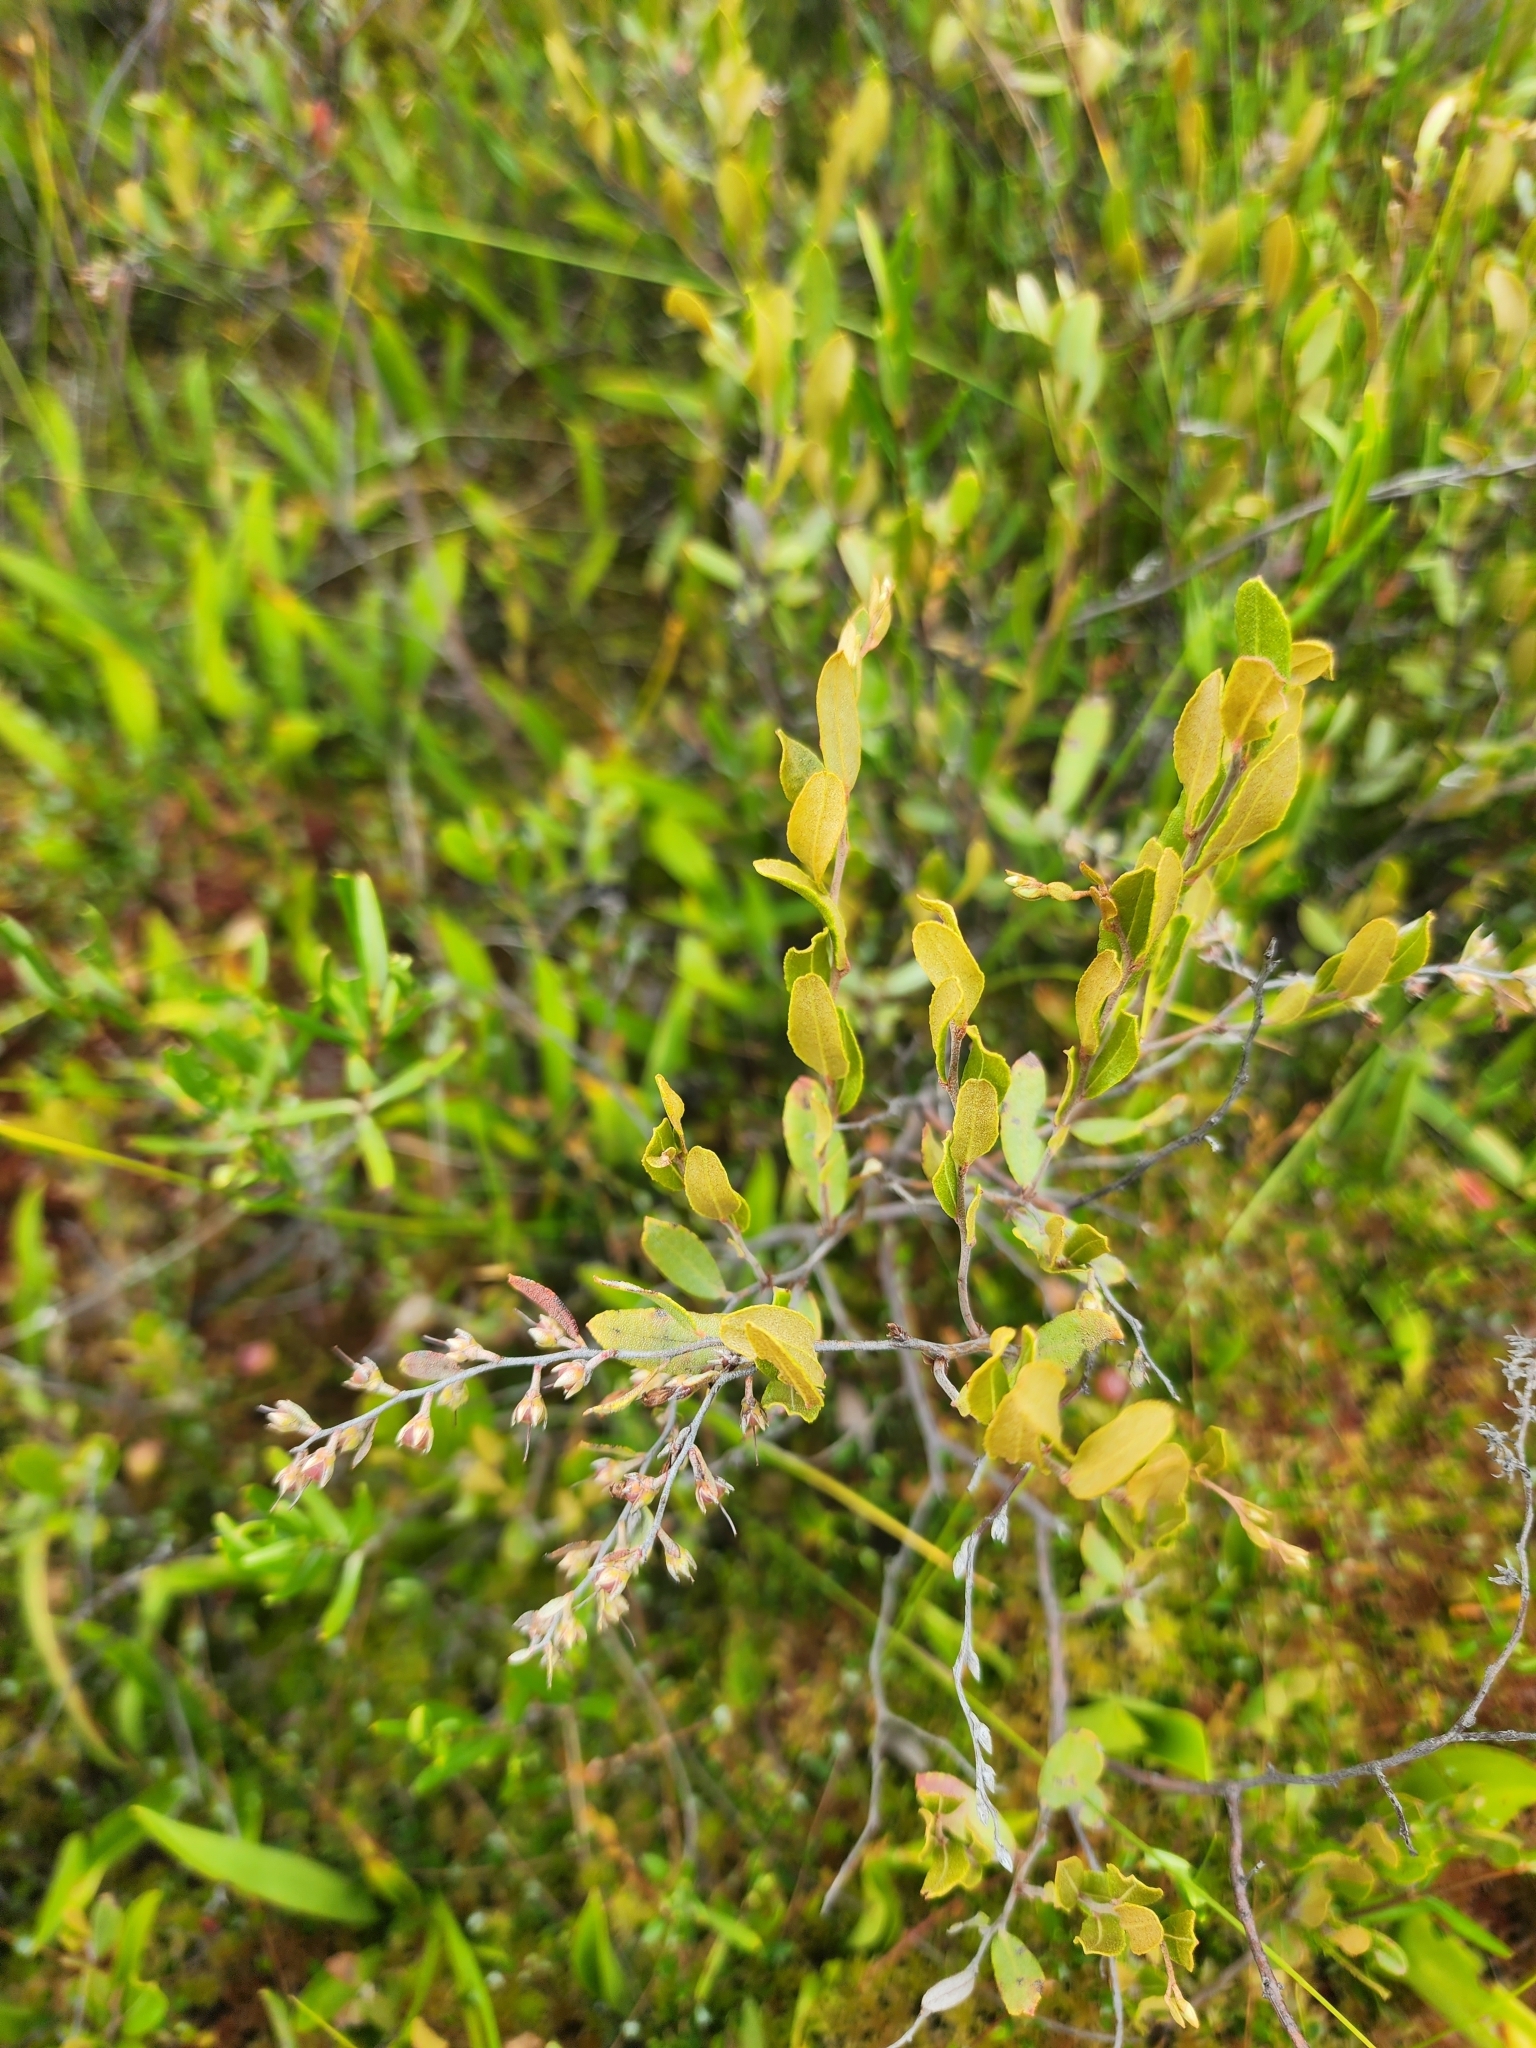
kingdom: Plantae
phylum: Tracheophyta
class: Magnoliopsida
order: Ericales
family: Ericaceae
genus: Chamaedaphne
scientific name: Chamaedaphne calyculata
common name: Leatherleaf
